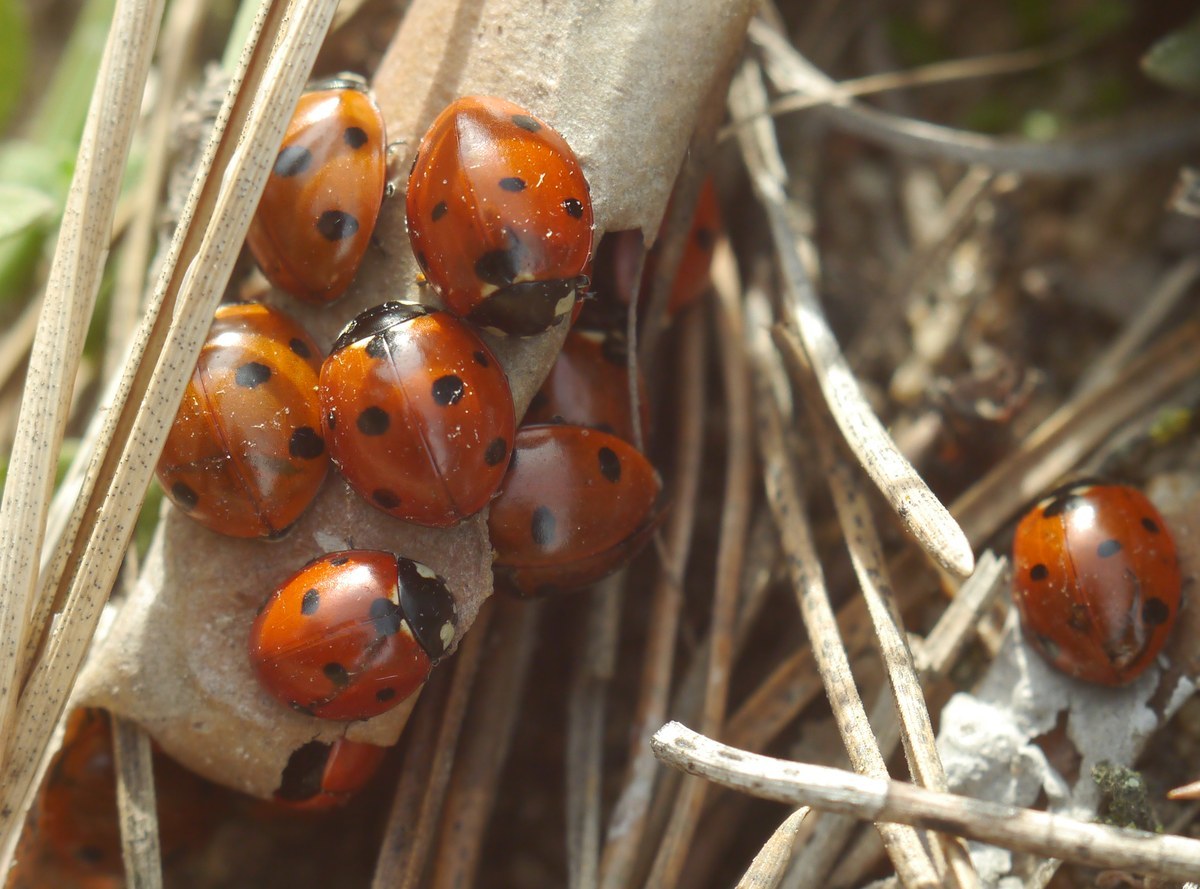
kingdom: Animalia
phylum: Arthropoda
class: Insecta
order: Coleoptera
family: Coccinellidae
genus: Coccinella
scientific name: Coccinella septempunctata
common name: Sevenspotted lady beetle
